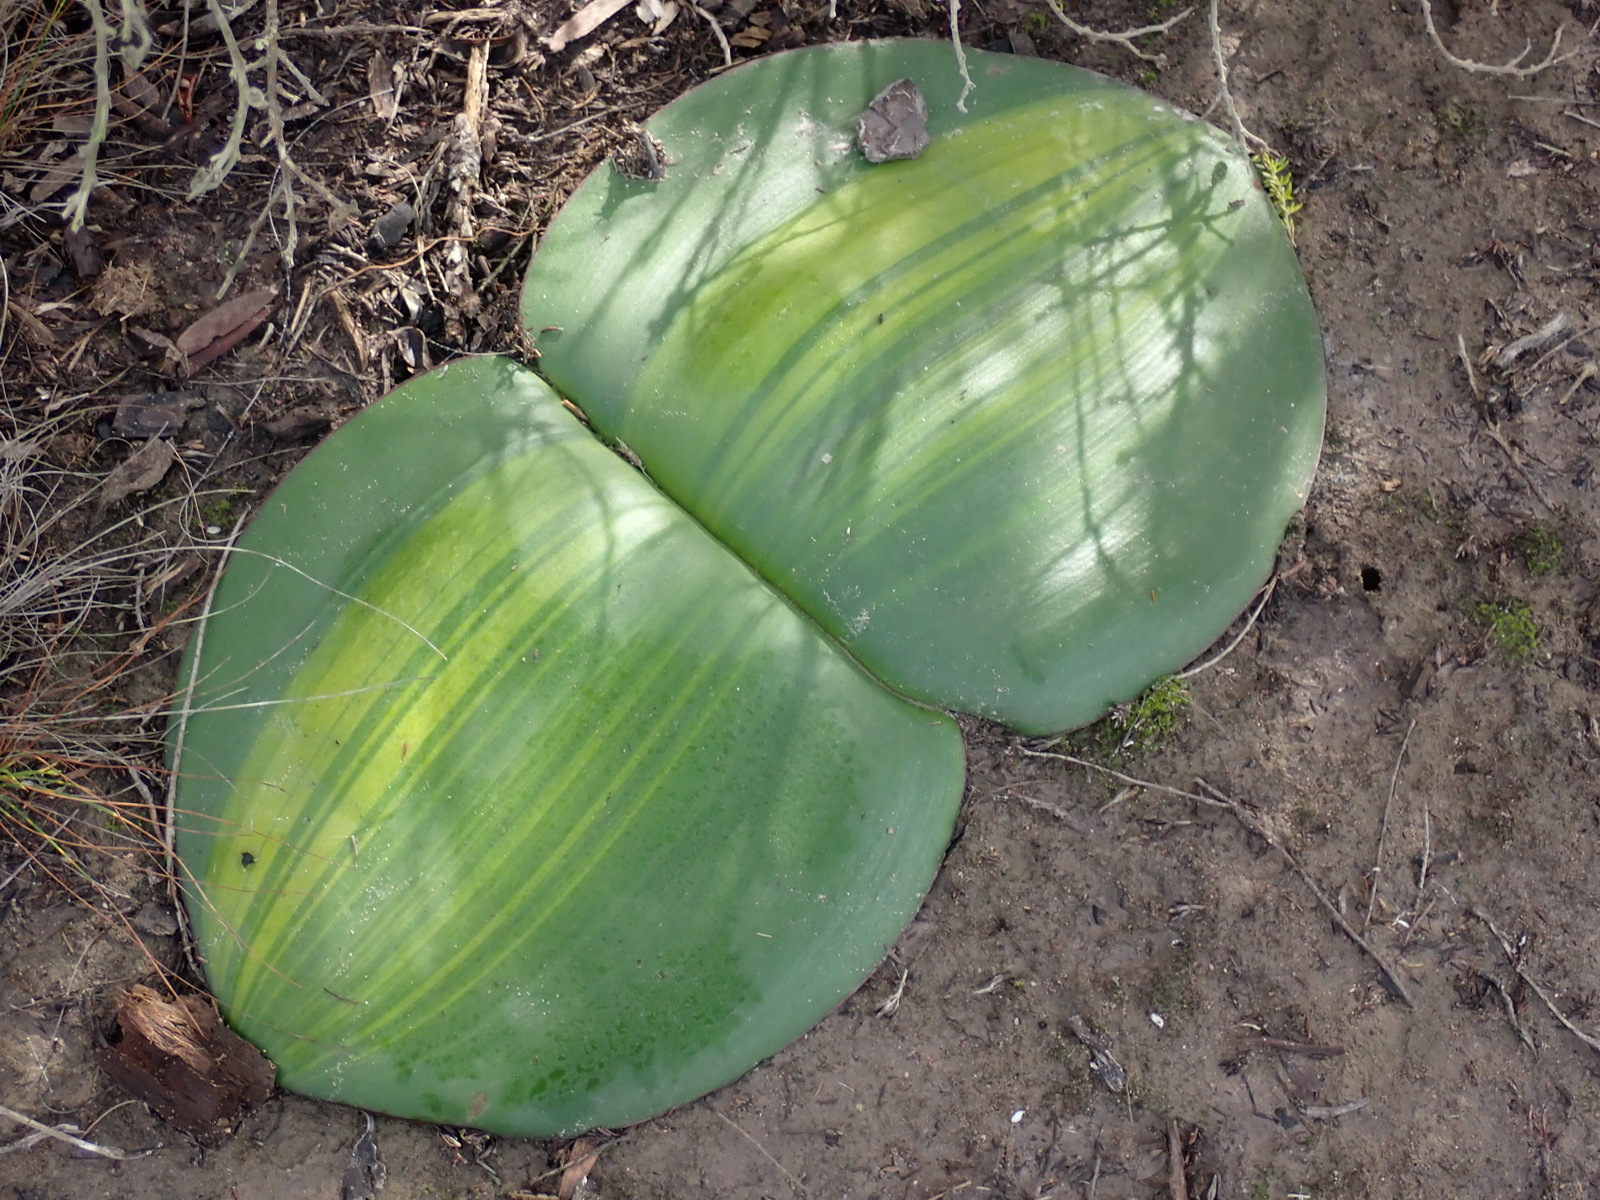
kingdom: Plantae
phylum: Tracheophyta
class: Liliopsida
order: Asparagales
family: Amaryllidaceae
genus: Haemanthus
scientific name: Haemanthus sanguineus
